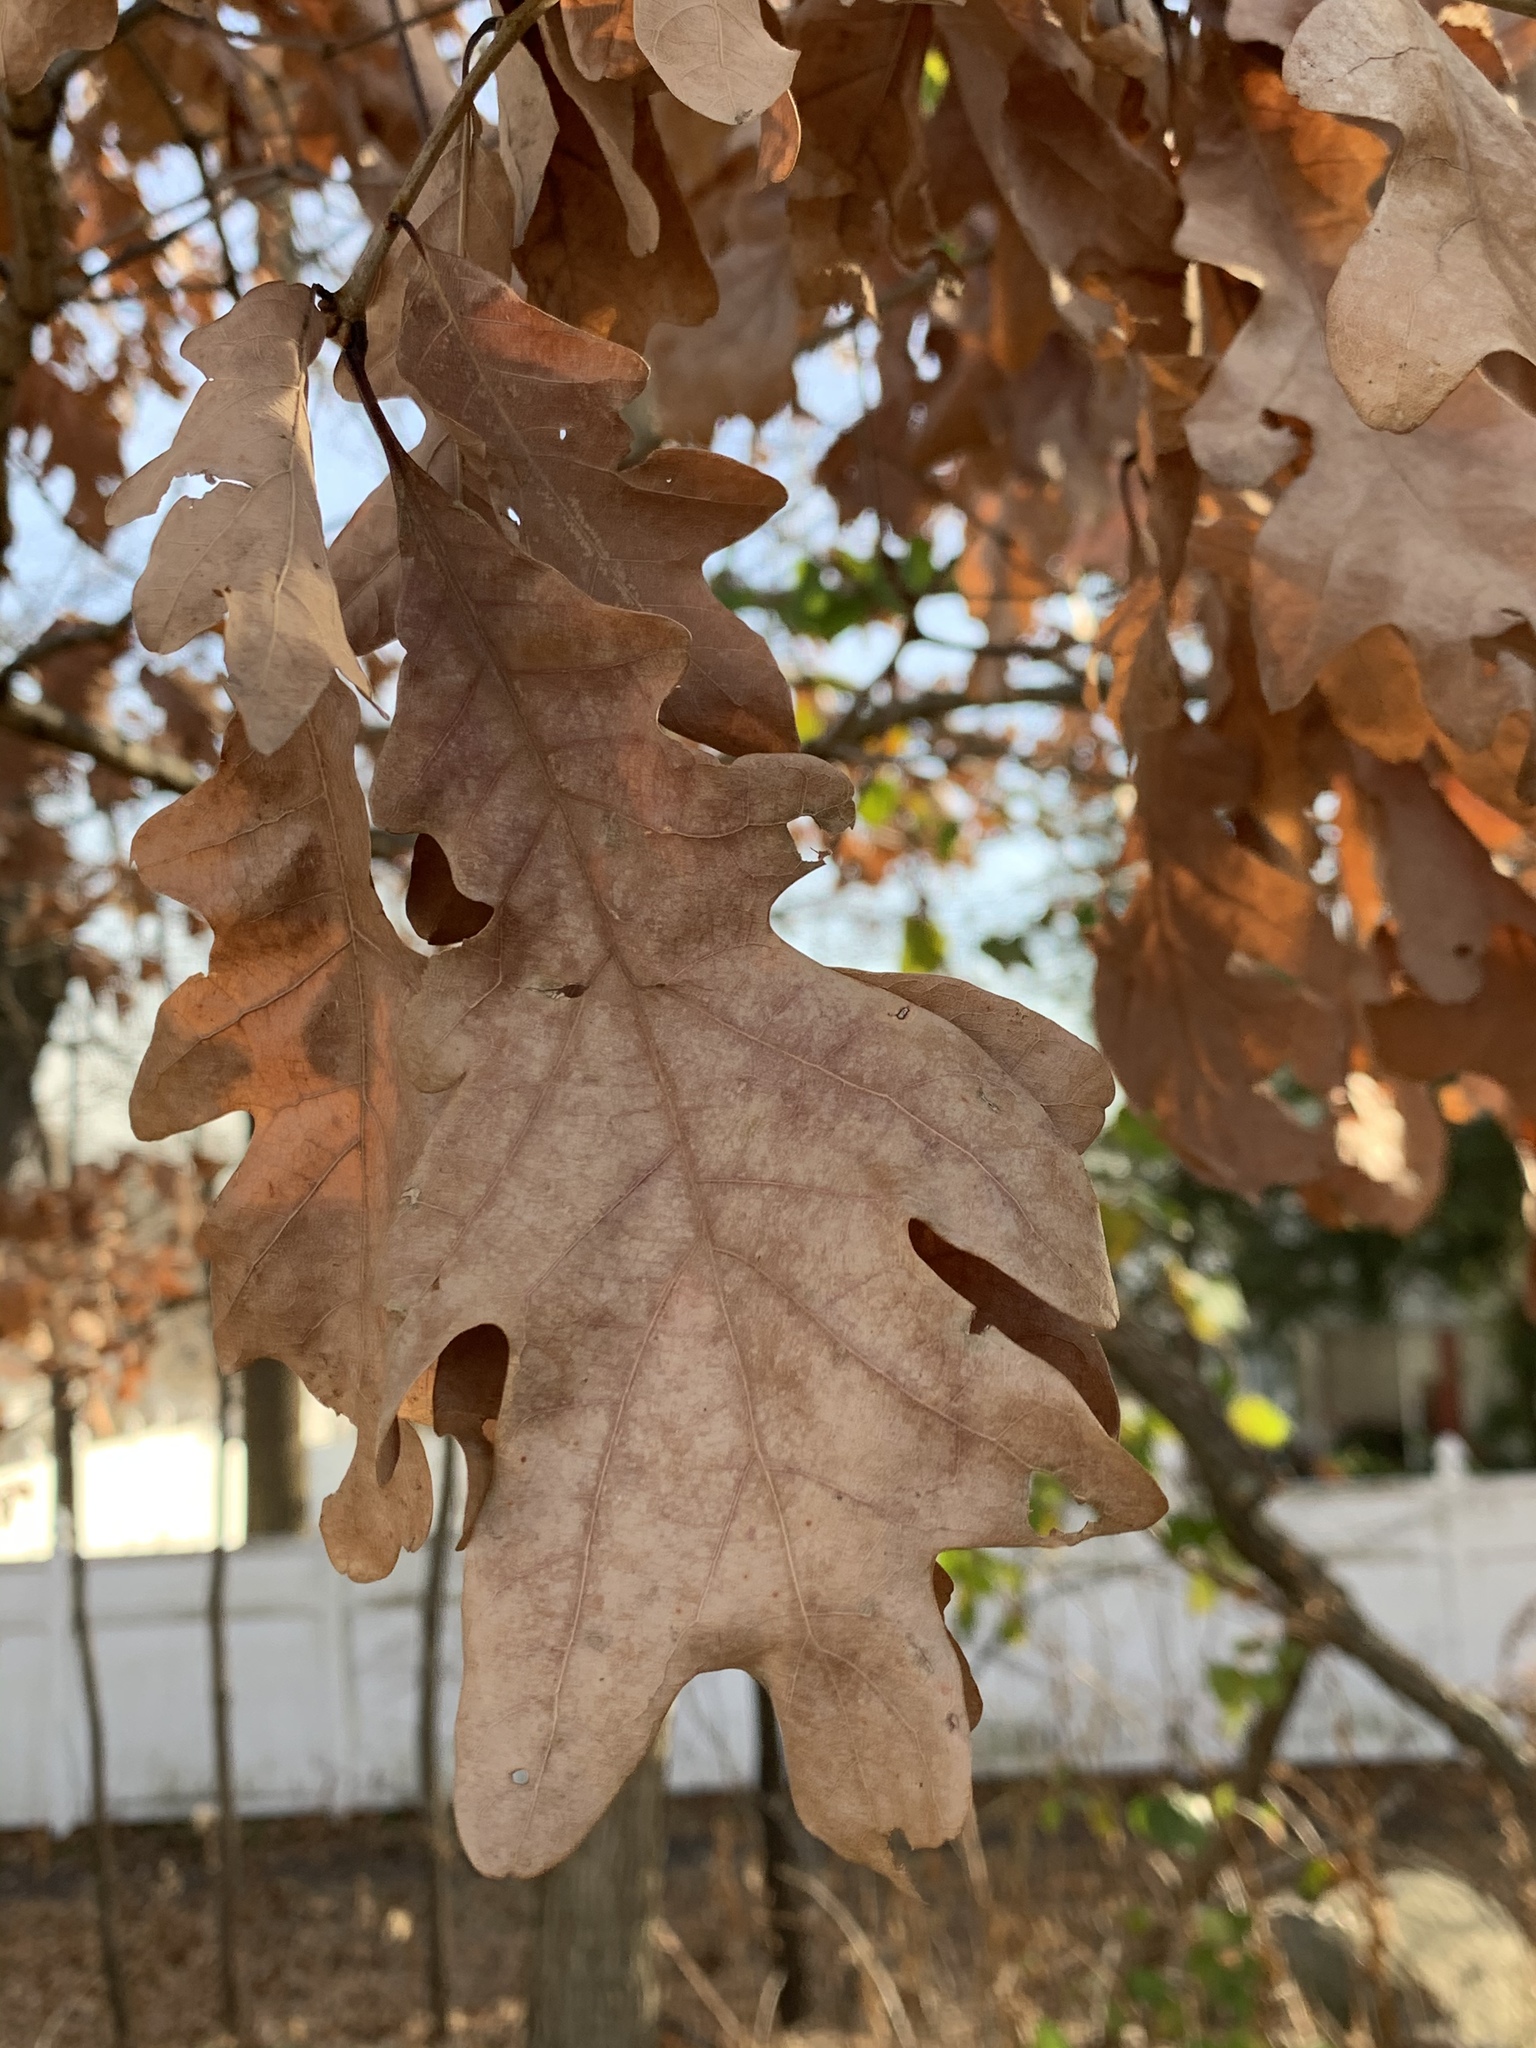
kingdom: Plantae
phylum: Tracheophyta
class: Magnoliopsida
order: Fagales
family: Fagaceae
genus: Quercus
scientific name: Quercus alba
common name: White oak
